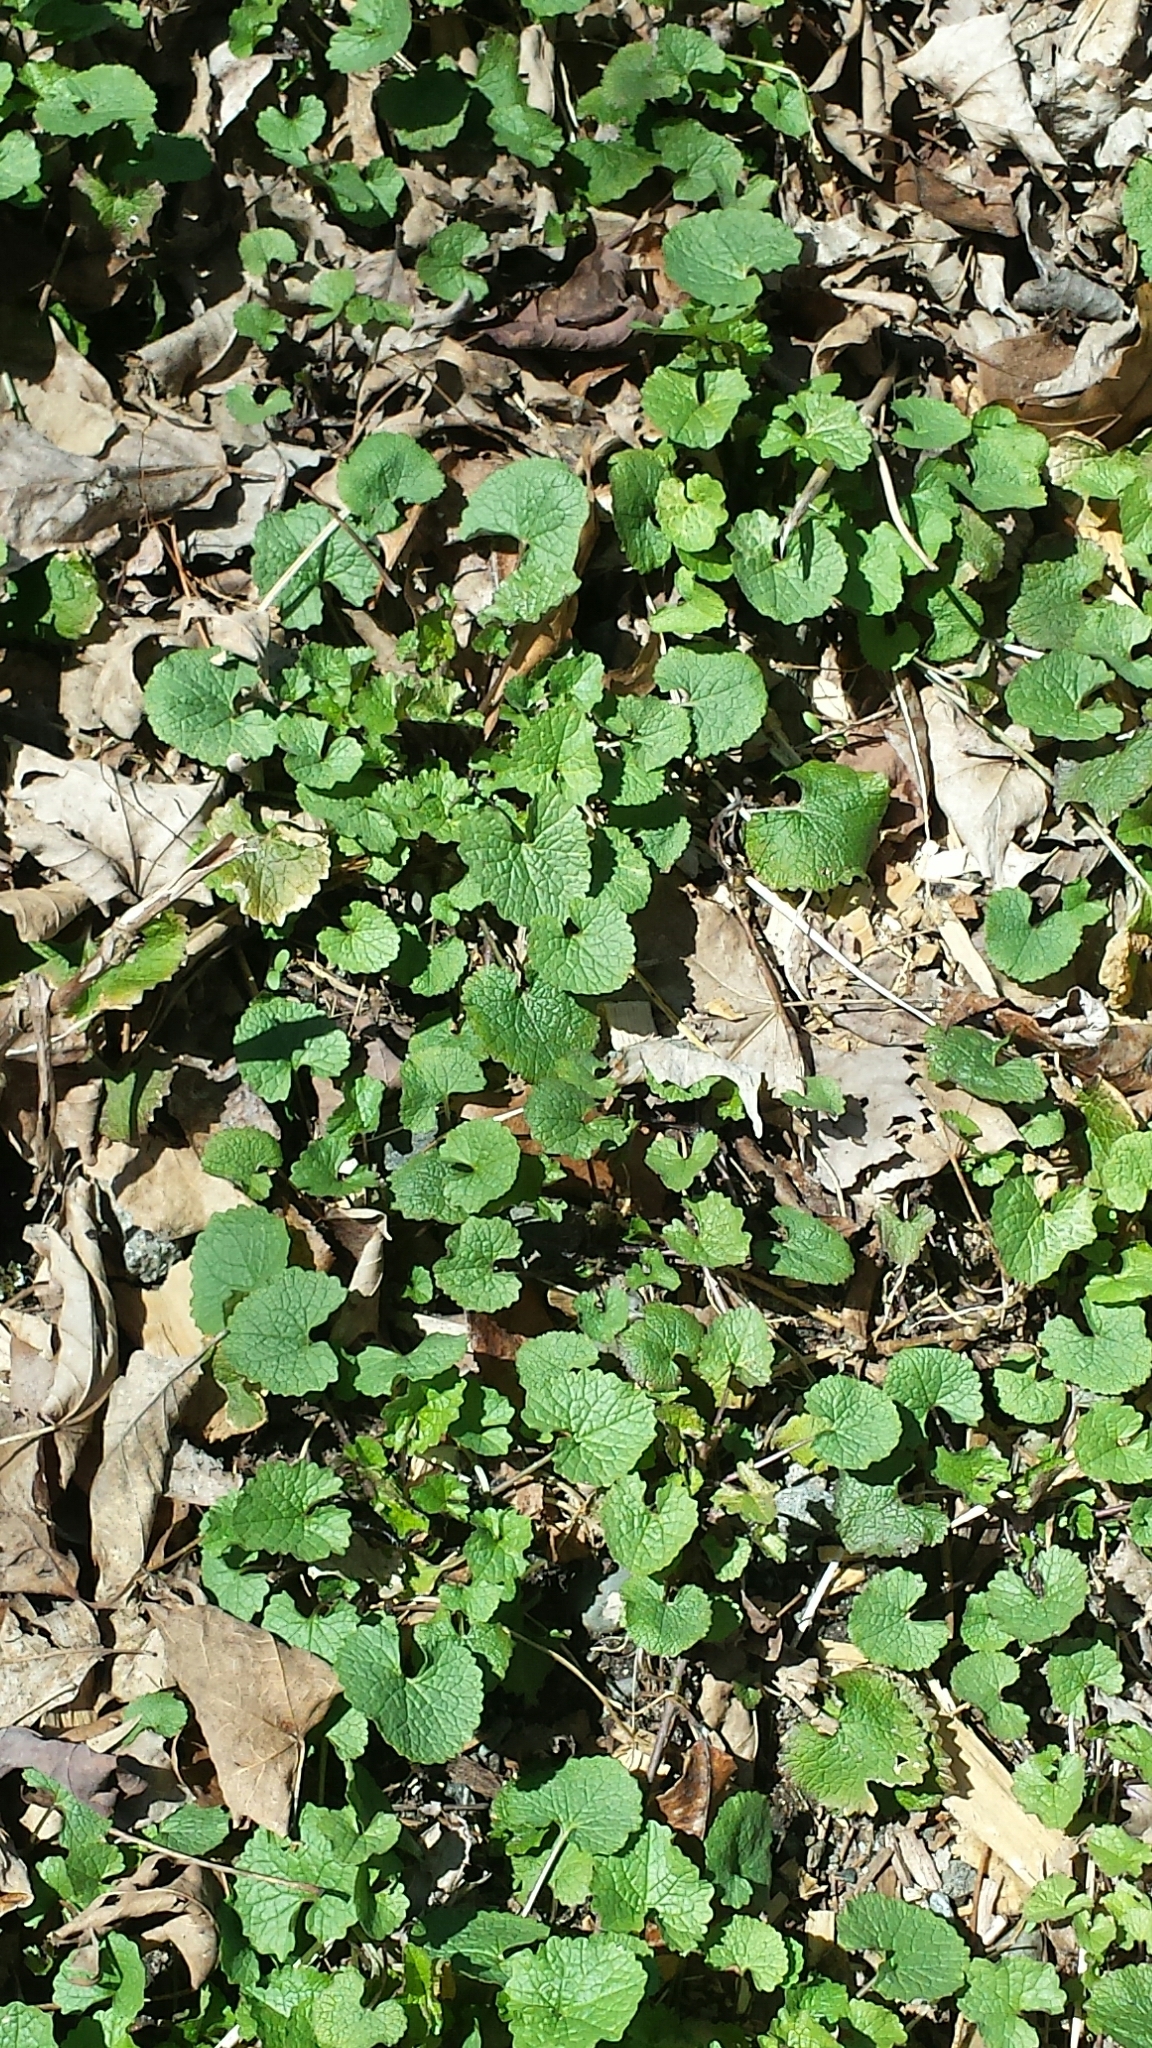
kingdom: Plantae
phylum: Tracheophyta
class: Magnoliopsida
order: Brassicales
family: Brassicaceae
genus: Alliaria
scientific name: Alliaria petiolata
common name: Garlic mustard
